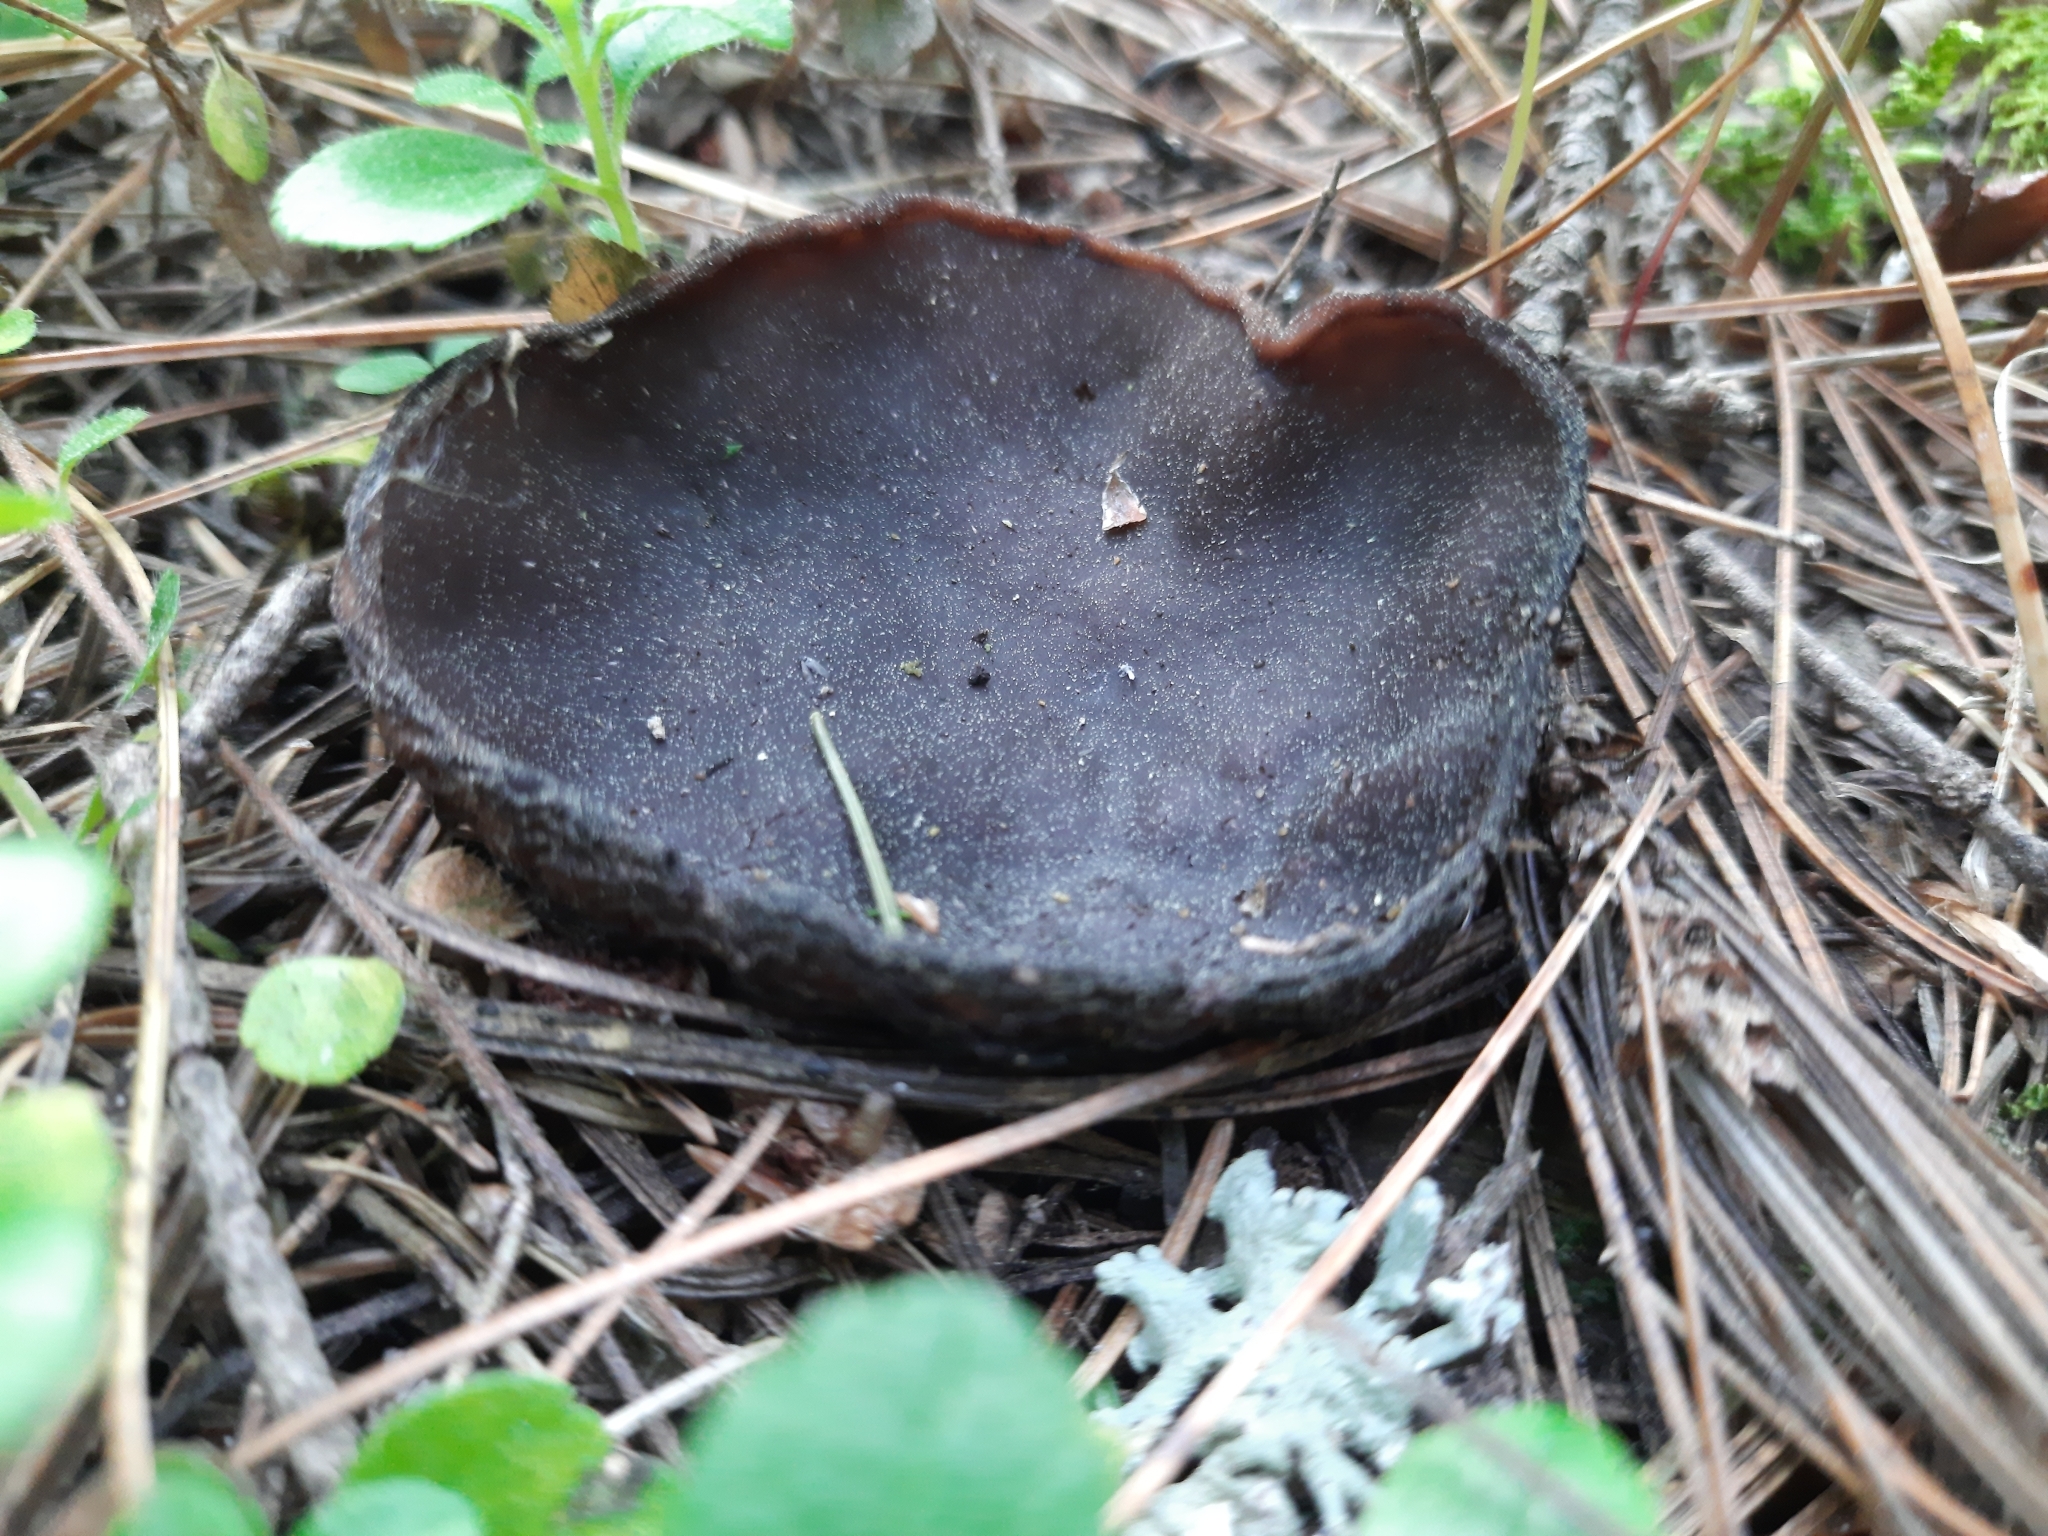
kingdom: Fungi
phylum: Ascomycota
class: Pezizomycetes
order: Pezizales
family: Sarcosomataceae
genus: Sarcosoma
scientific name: Sarcosoma globosum
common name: Charred-pancake cup
